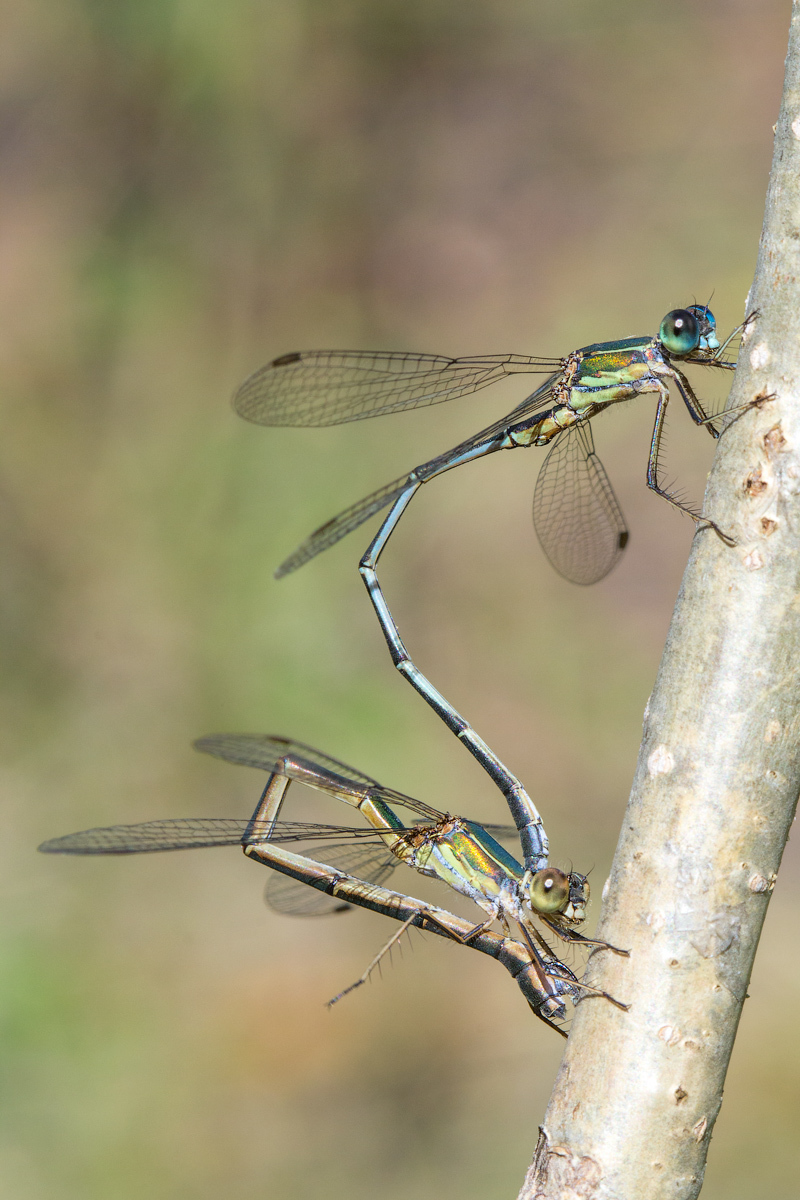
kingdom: Animalia
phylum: Arthropoda
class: Insecta
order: Odonata
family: Lestidae
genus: Chalcolestes
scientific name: Chalcolestes parvidens
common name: Eastern willow spreadwing
